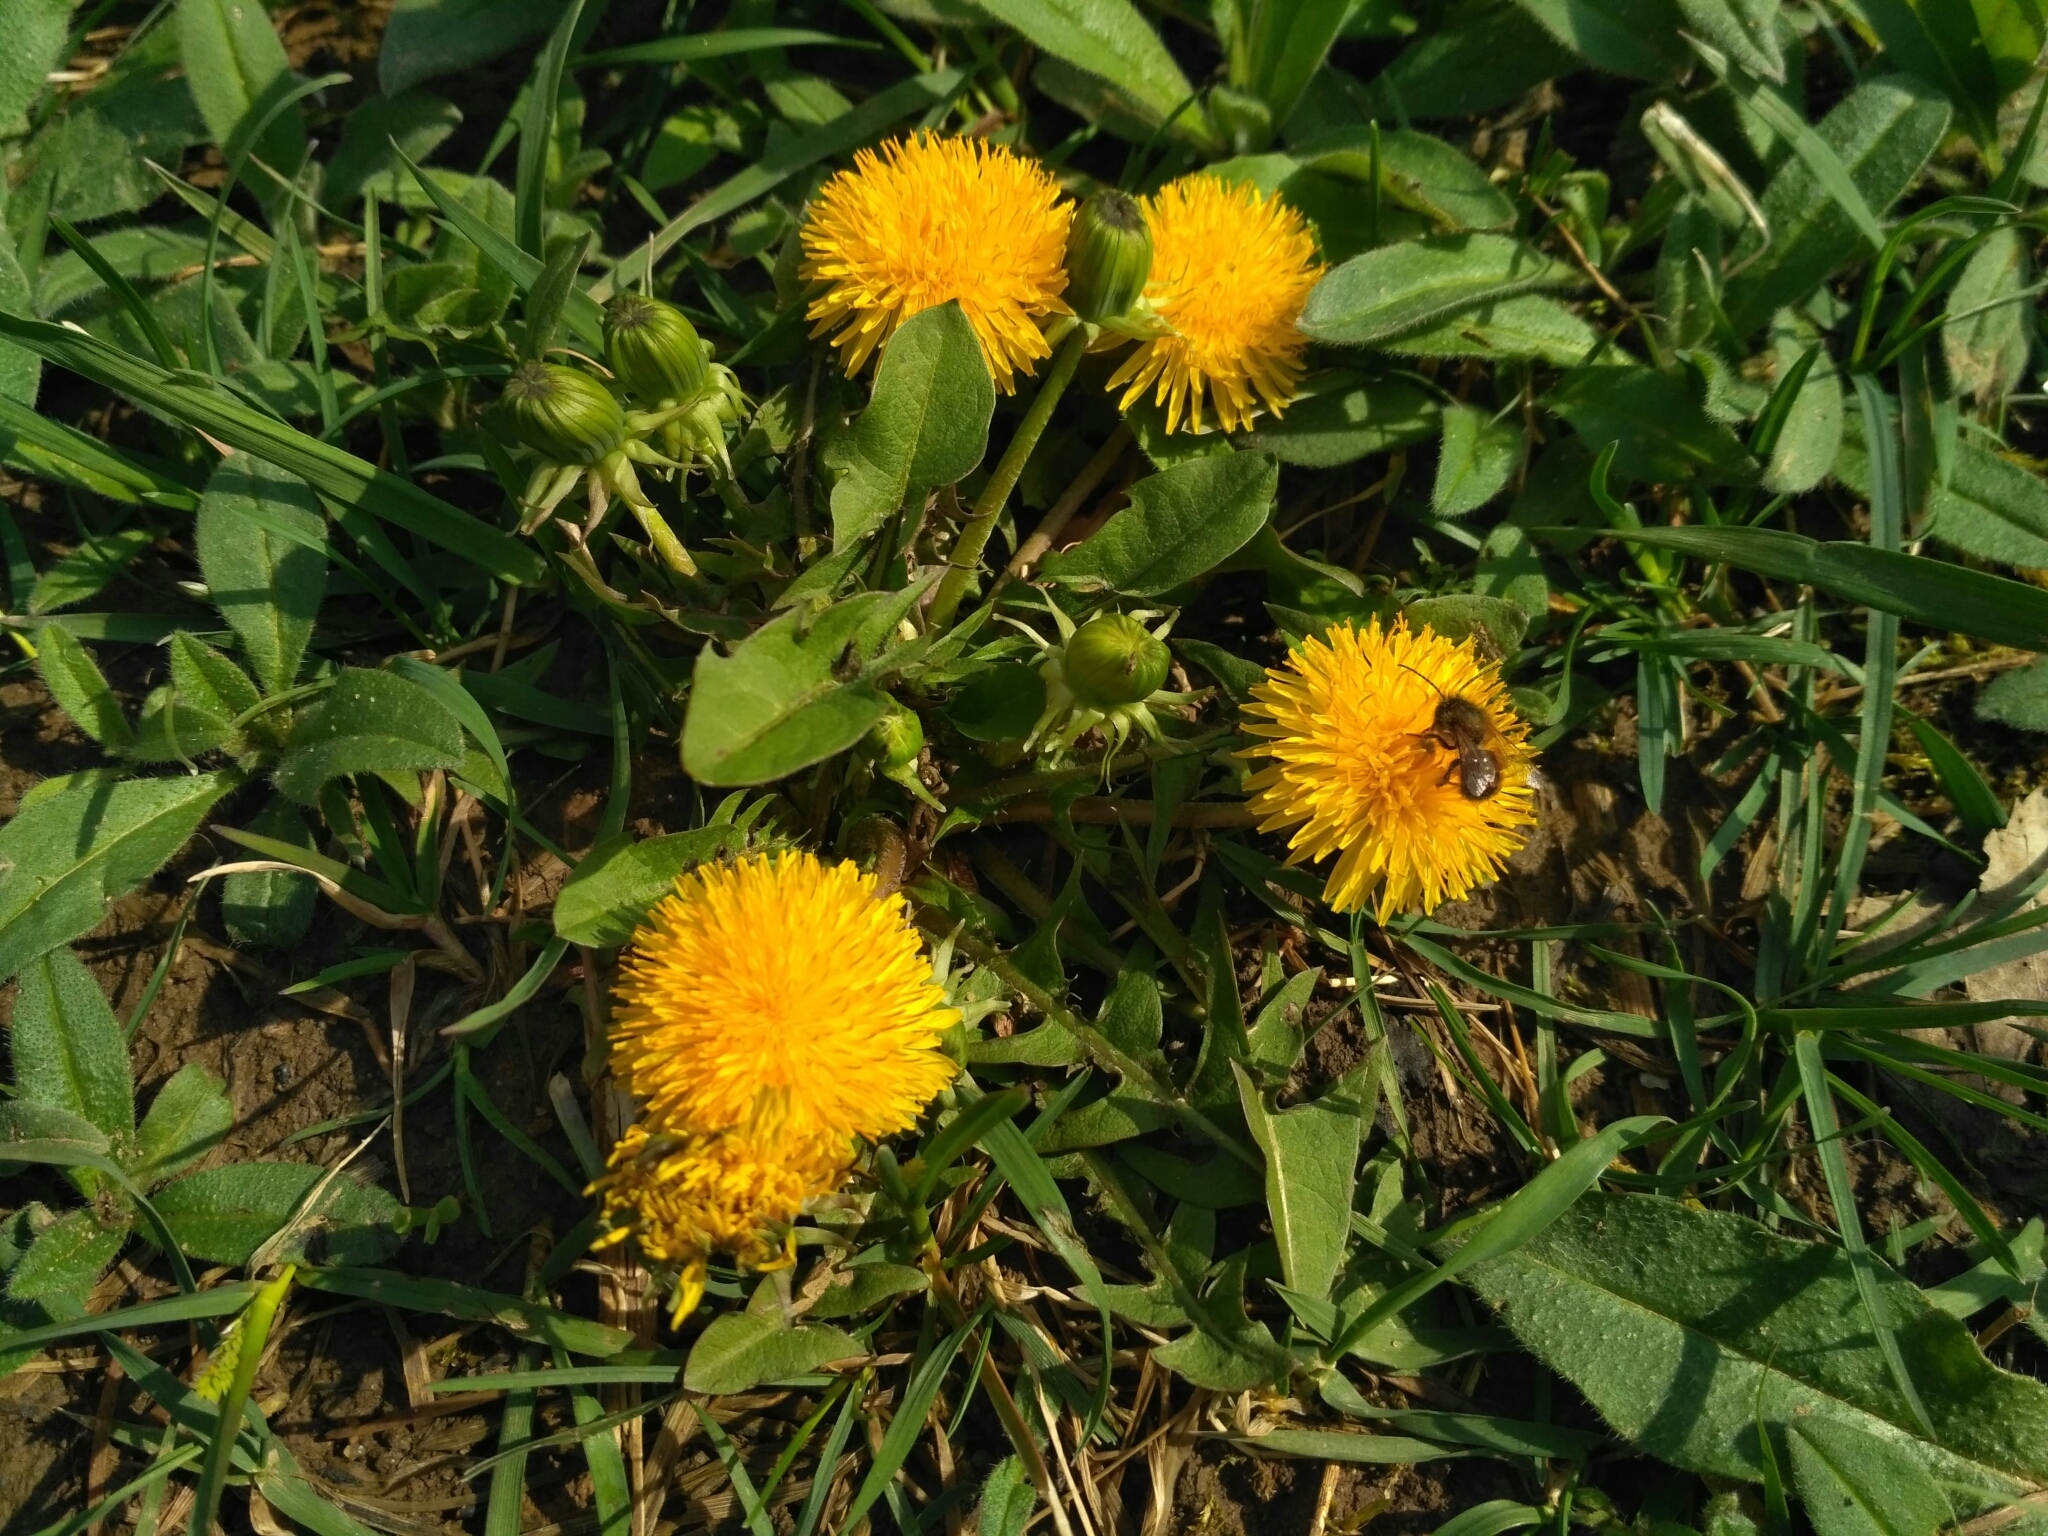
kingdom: Plantae
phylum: Tracheophyta
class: Magnoliopsida
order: Asterales
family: Asteraceae
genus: Taraxacum
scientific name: Taraxacum officinale
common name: Common dandelion
